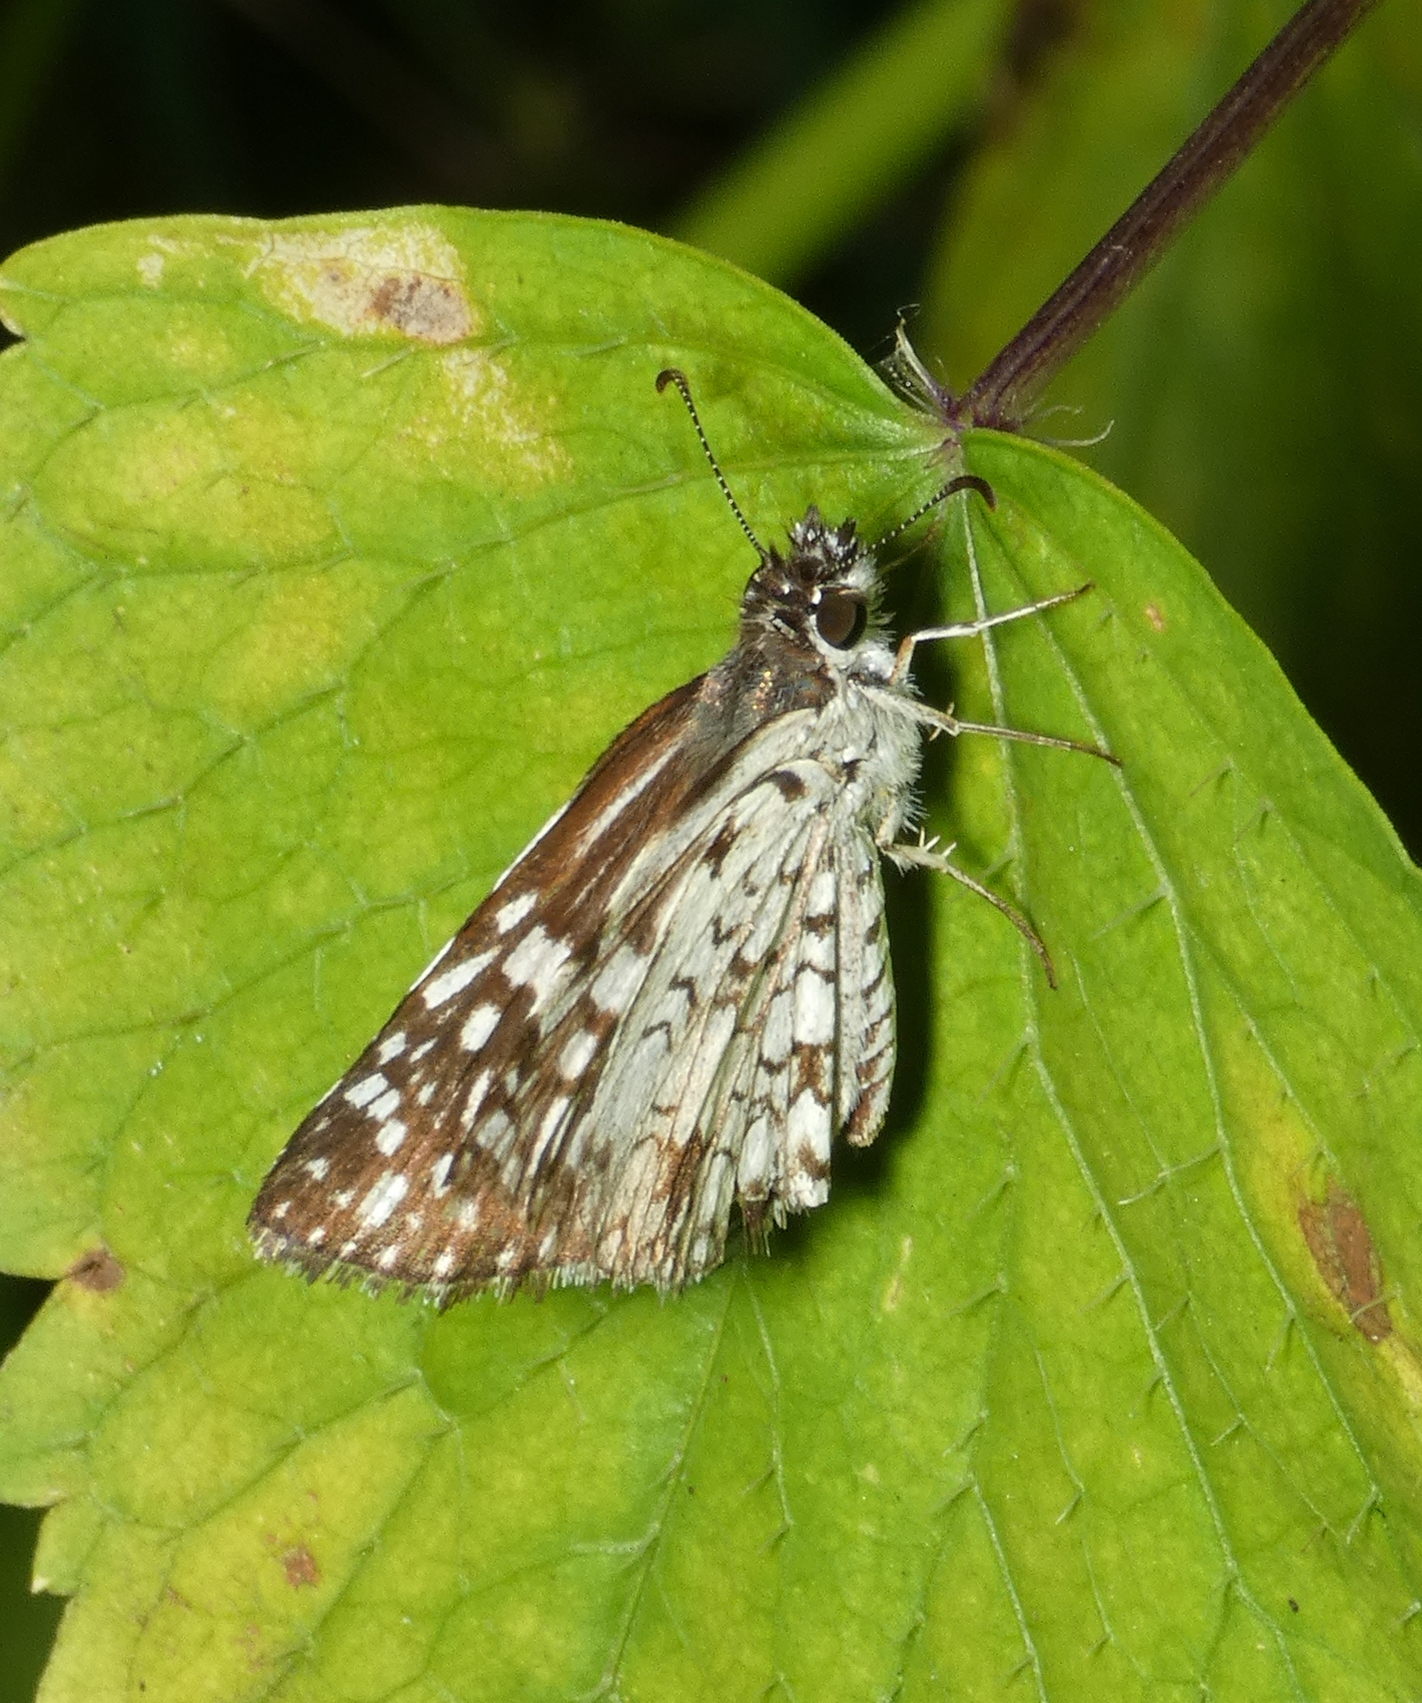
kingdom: Animalia
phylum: Arthropoda
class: Insecta
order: Lepidoptera
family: Hesperiidae
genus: Pyrgus
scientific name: Pyrgus oileus
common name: Tropical checkered-skipper
